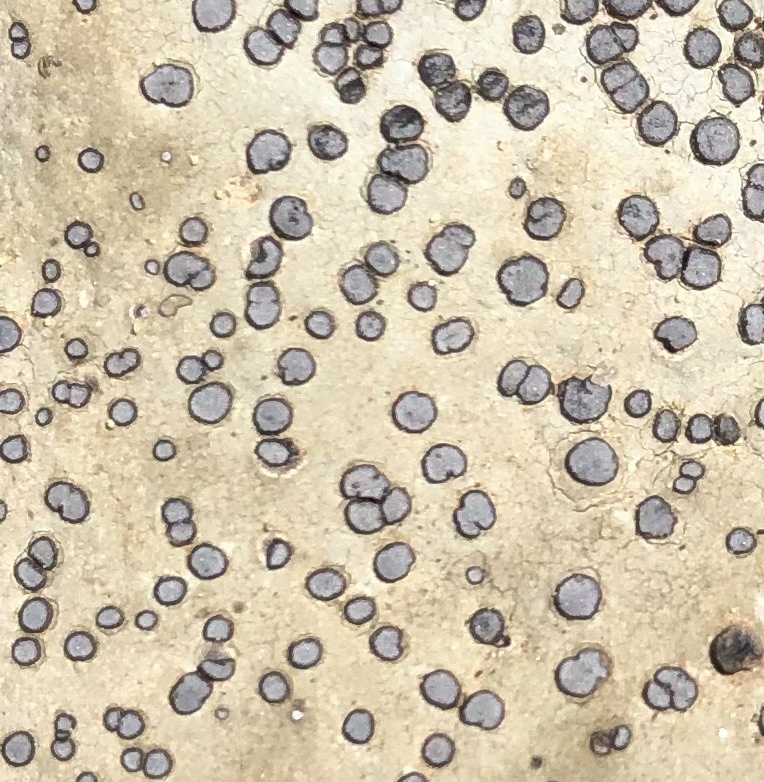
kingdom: Fungi
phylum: Ascomycota
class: Lecanoromycetes
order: Lecideales
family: Lecideaceae
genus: Porpidia
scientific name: Porpidia albocaerulescens
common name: Smokey-eyed boulder lichen
